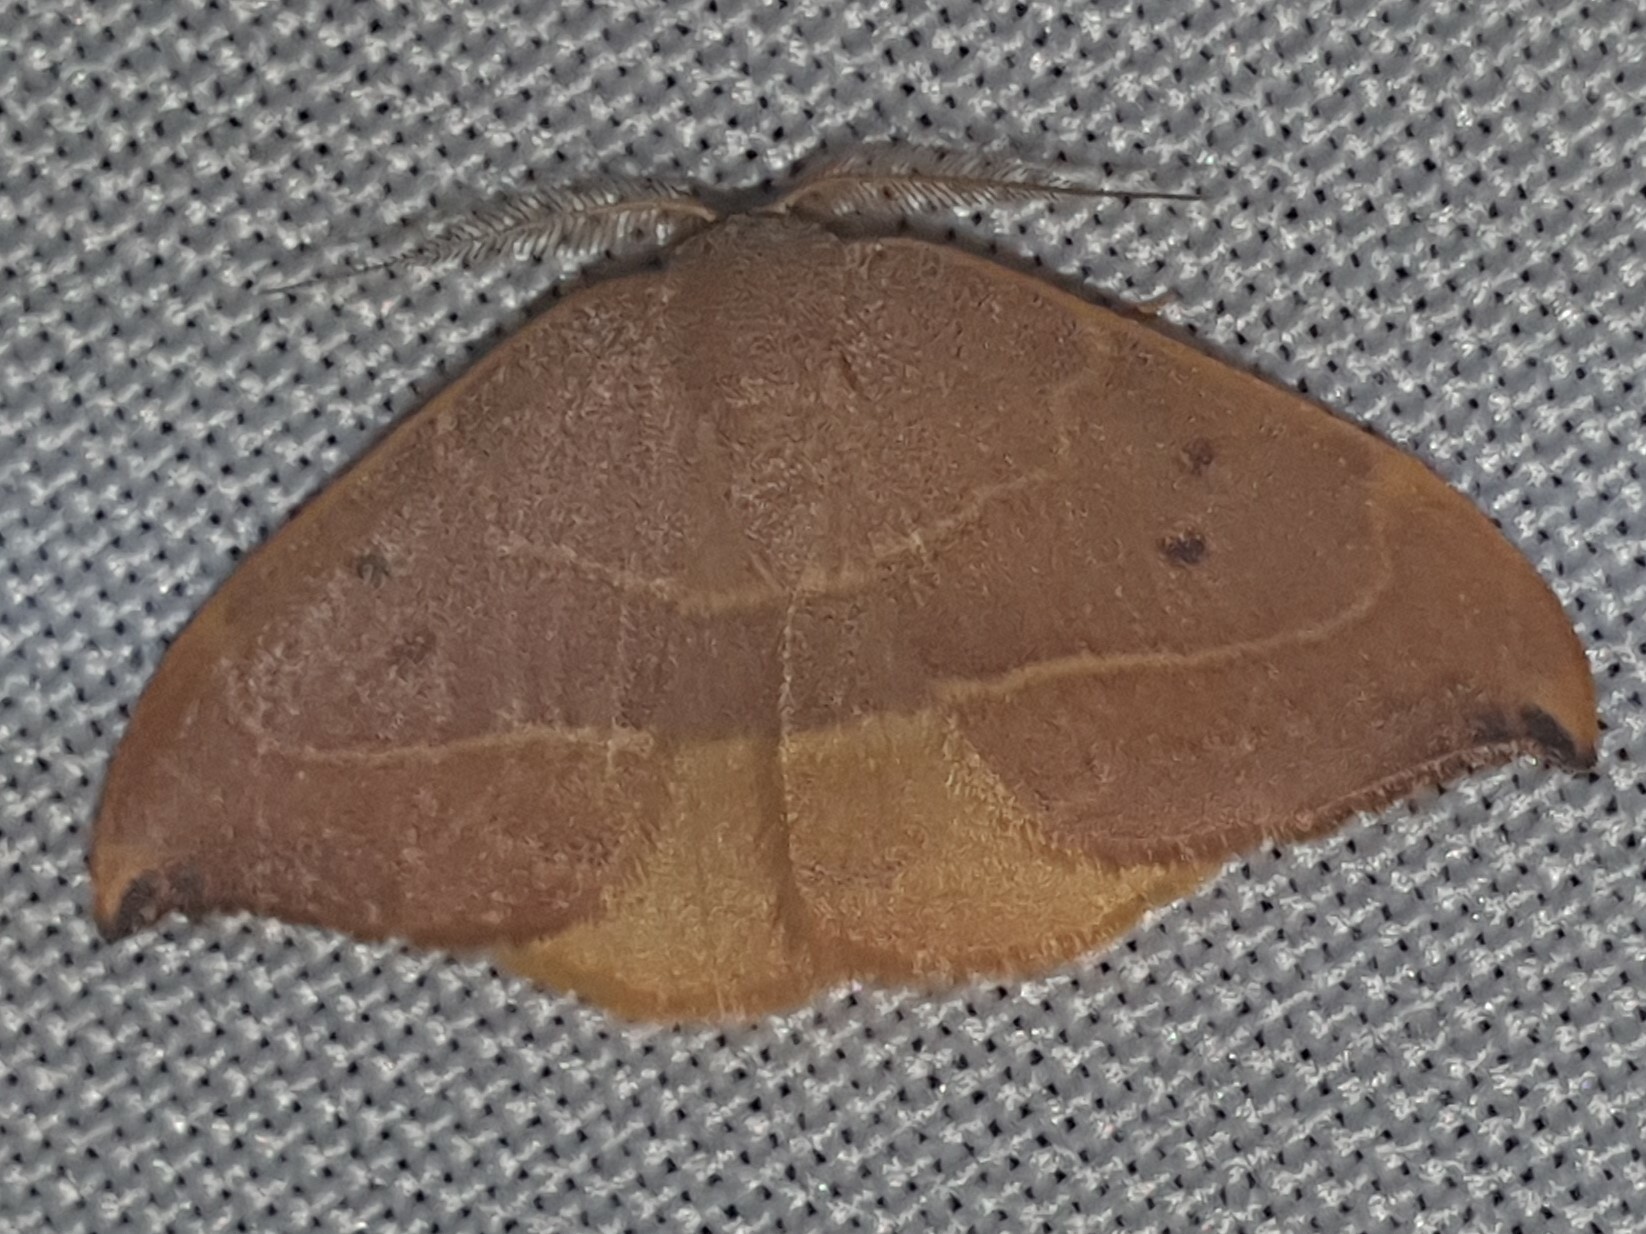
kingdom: Animalia
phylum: Arthropoda
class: Insecta
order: Lepidoptera
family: Drepanidae
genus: Watsonalla
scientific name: Watsonalla uncinula
